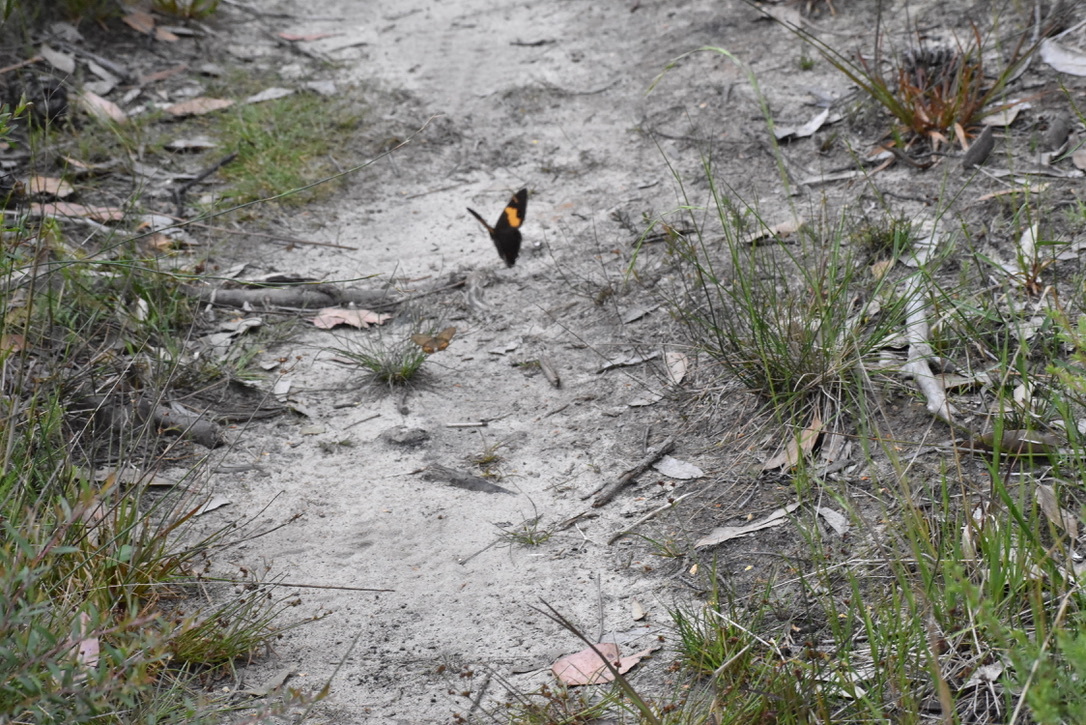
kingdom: Animalia
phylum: Arthropoda
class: Insecta
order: Lepidoptera
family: Nymphalidae
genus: Tisiphone
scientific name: Tisiphone abeona
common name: Swordgrass brown
